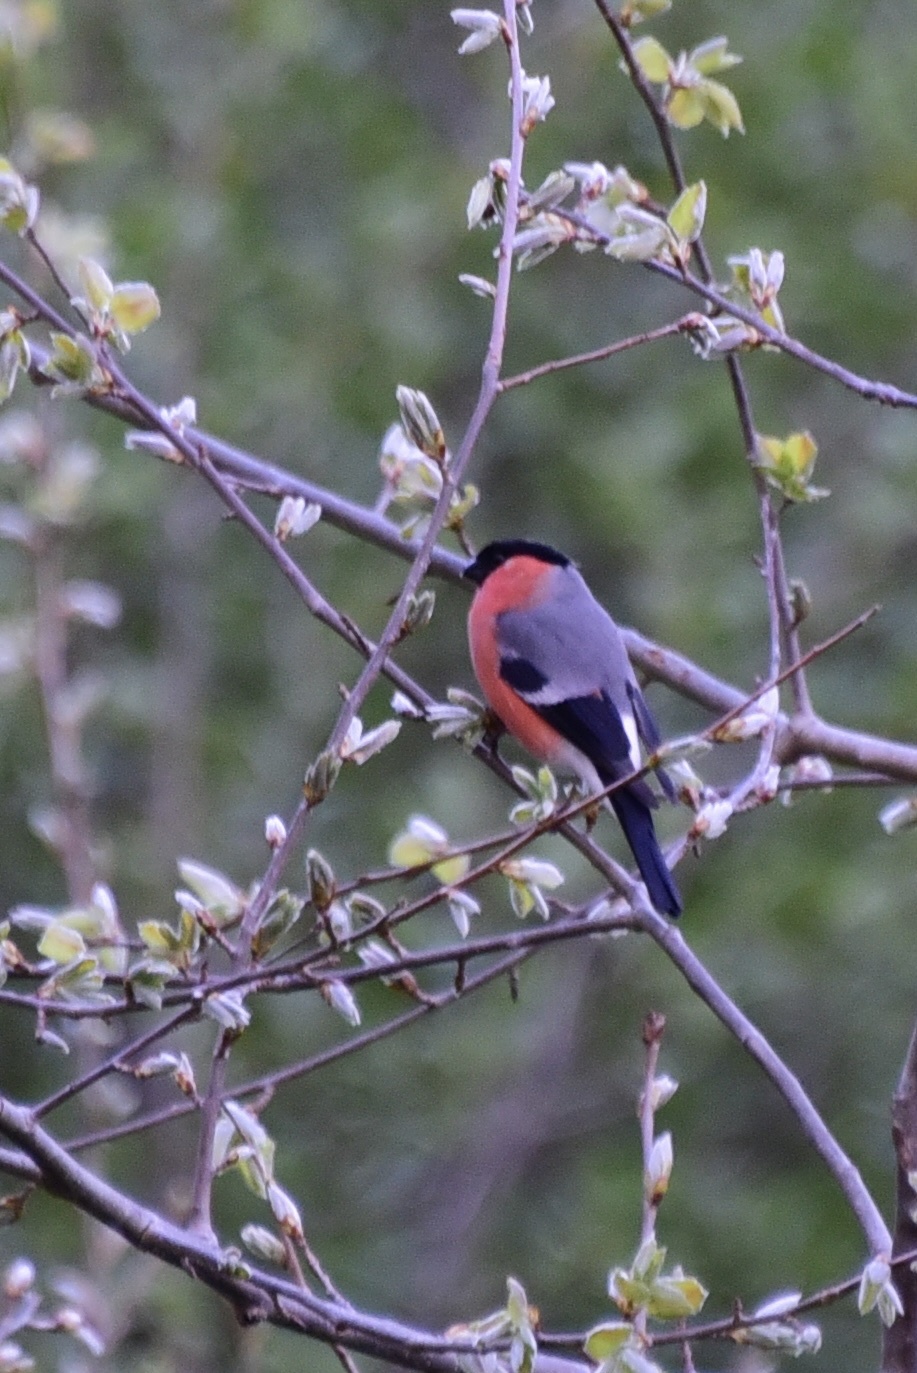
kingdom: Animalia
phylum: Chordata
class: Aves
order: Passeriformes
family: Fringillidae
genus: Pyrrhula
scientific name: Pyrrhula pyrrhula
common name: Eurasian bullfinch
